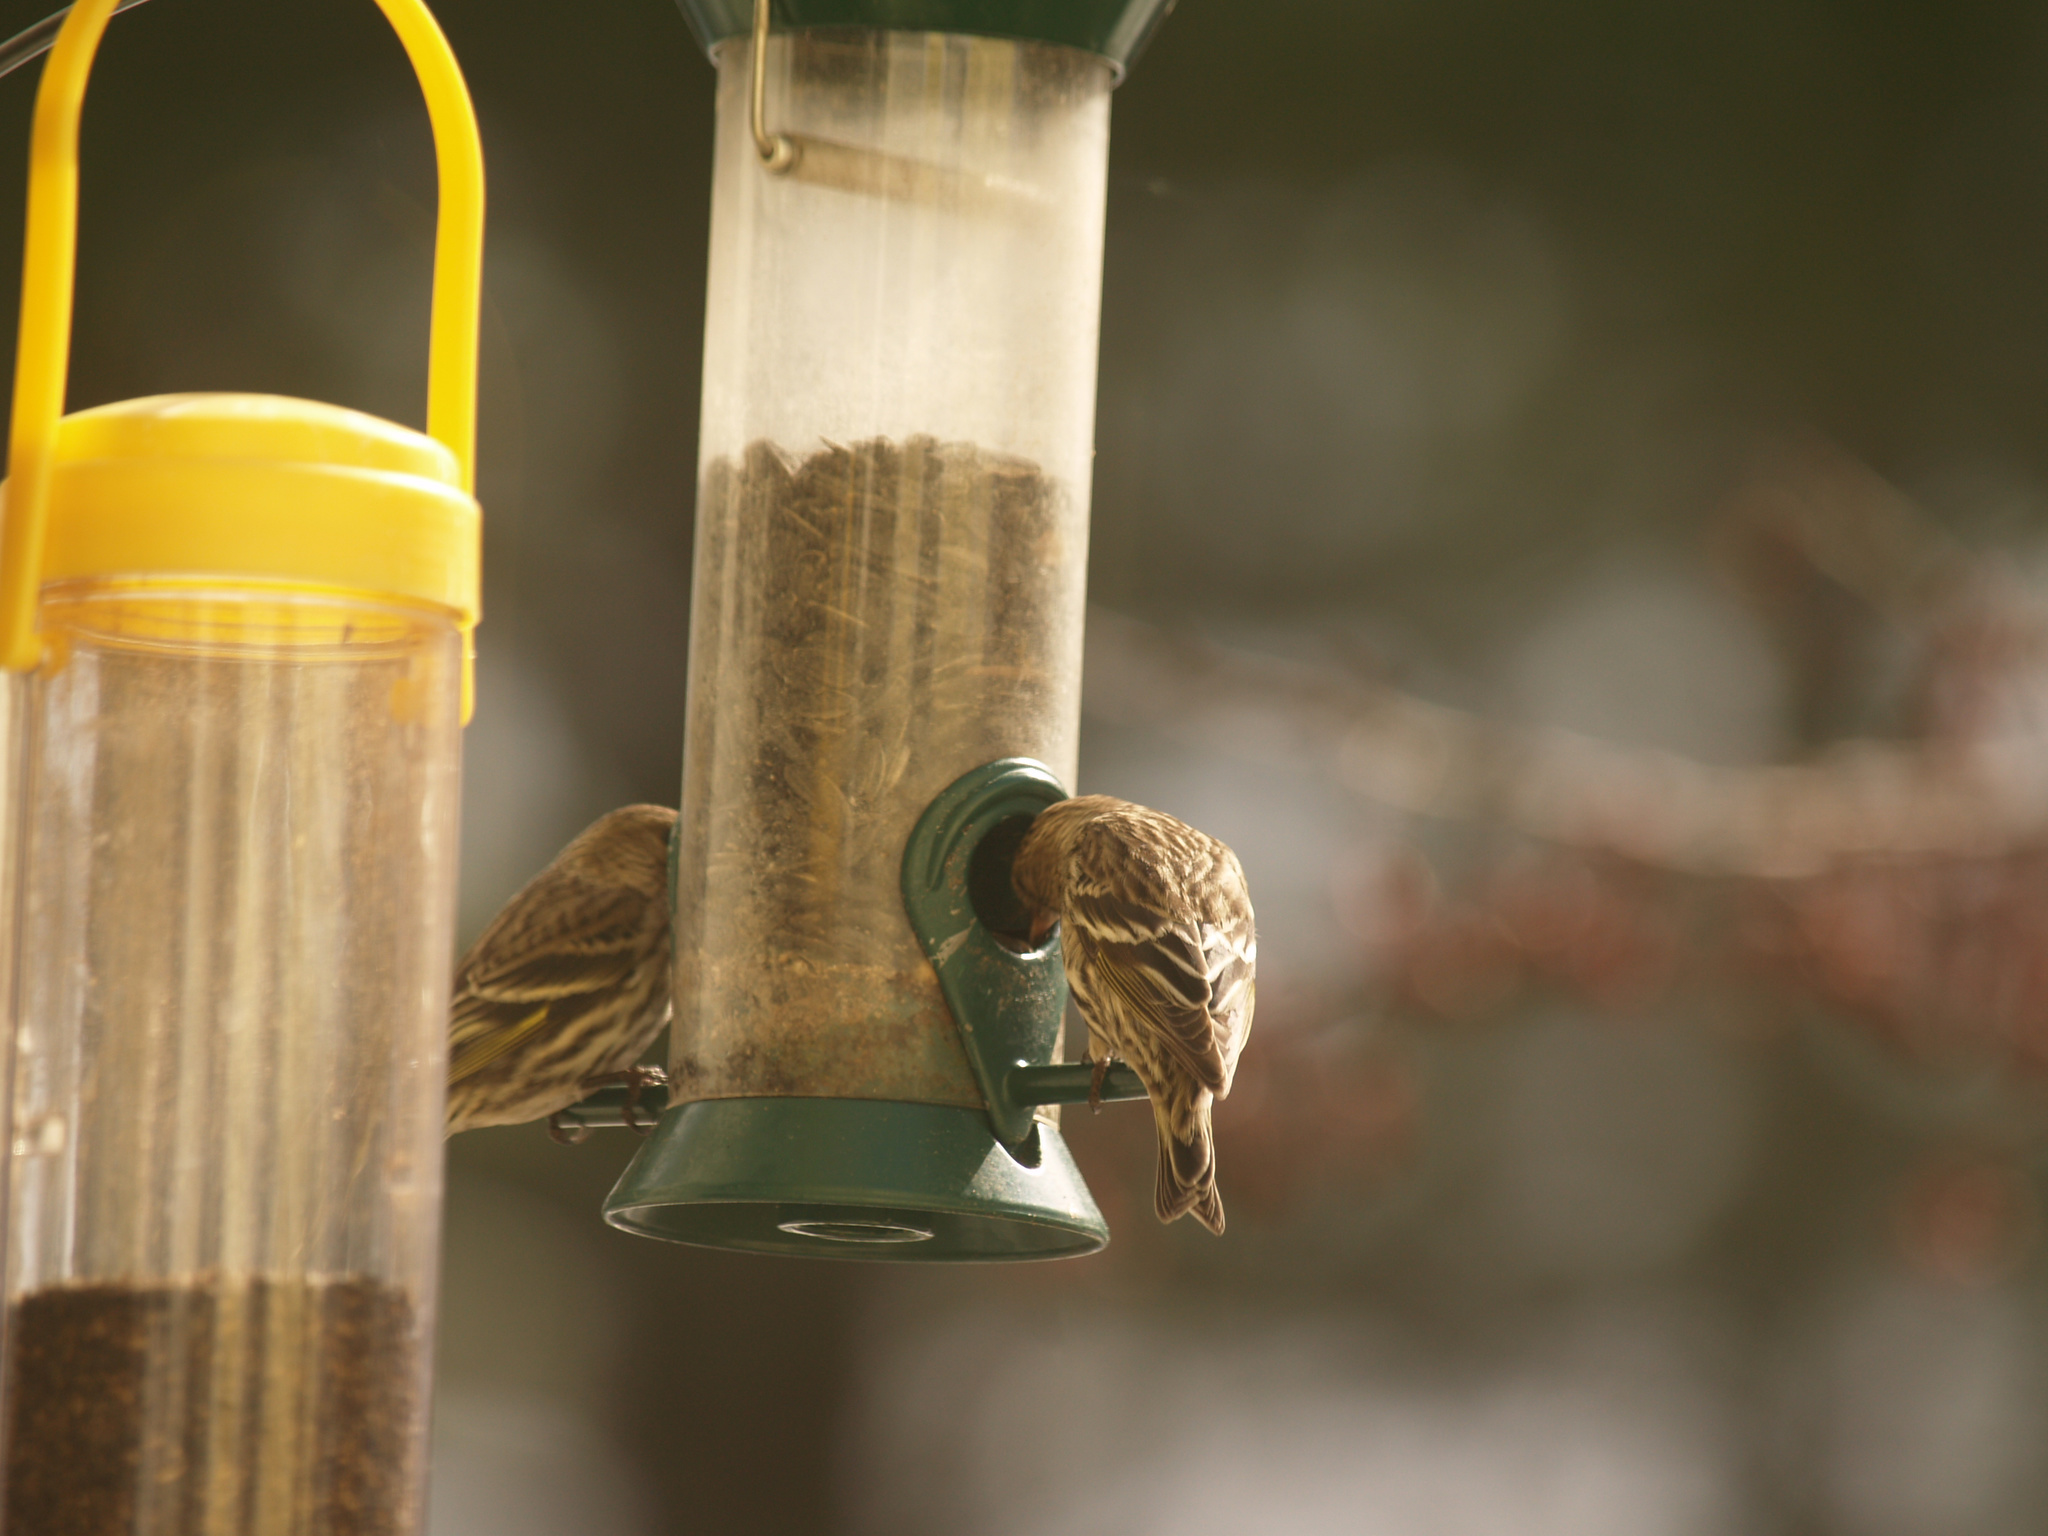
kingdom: Animalia
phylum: Chordata
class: Aves
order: Passeriformes
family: Fringillidae
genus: Spinus
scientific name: Spinus pinus
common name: Pine siskin
